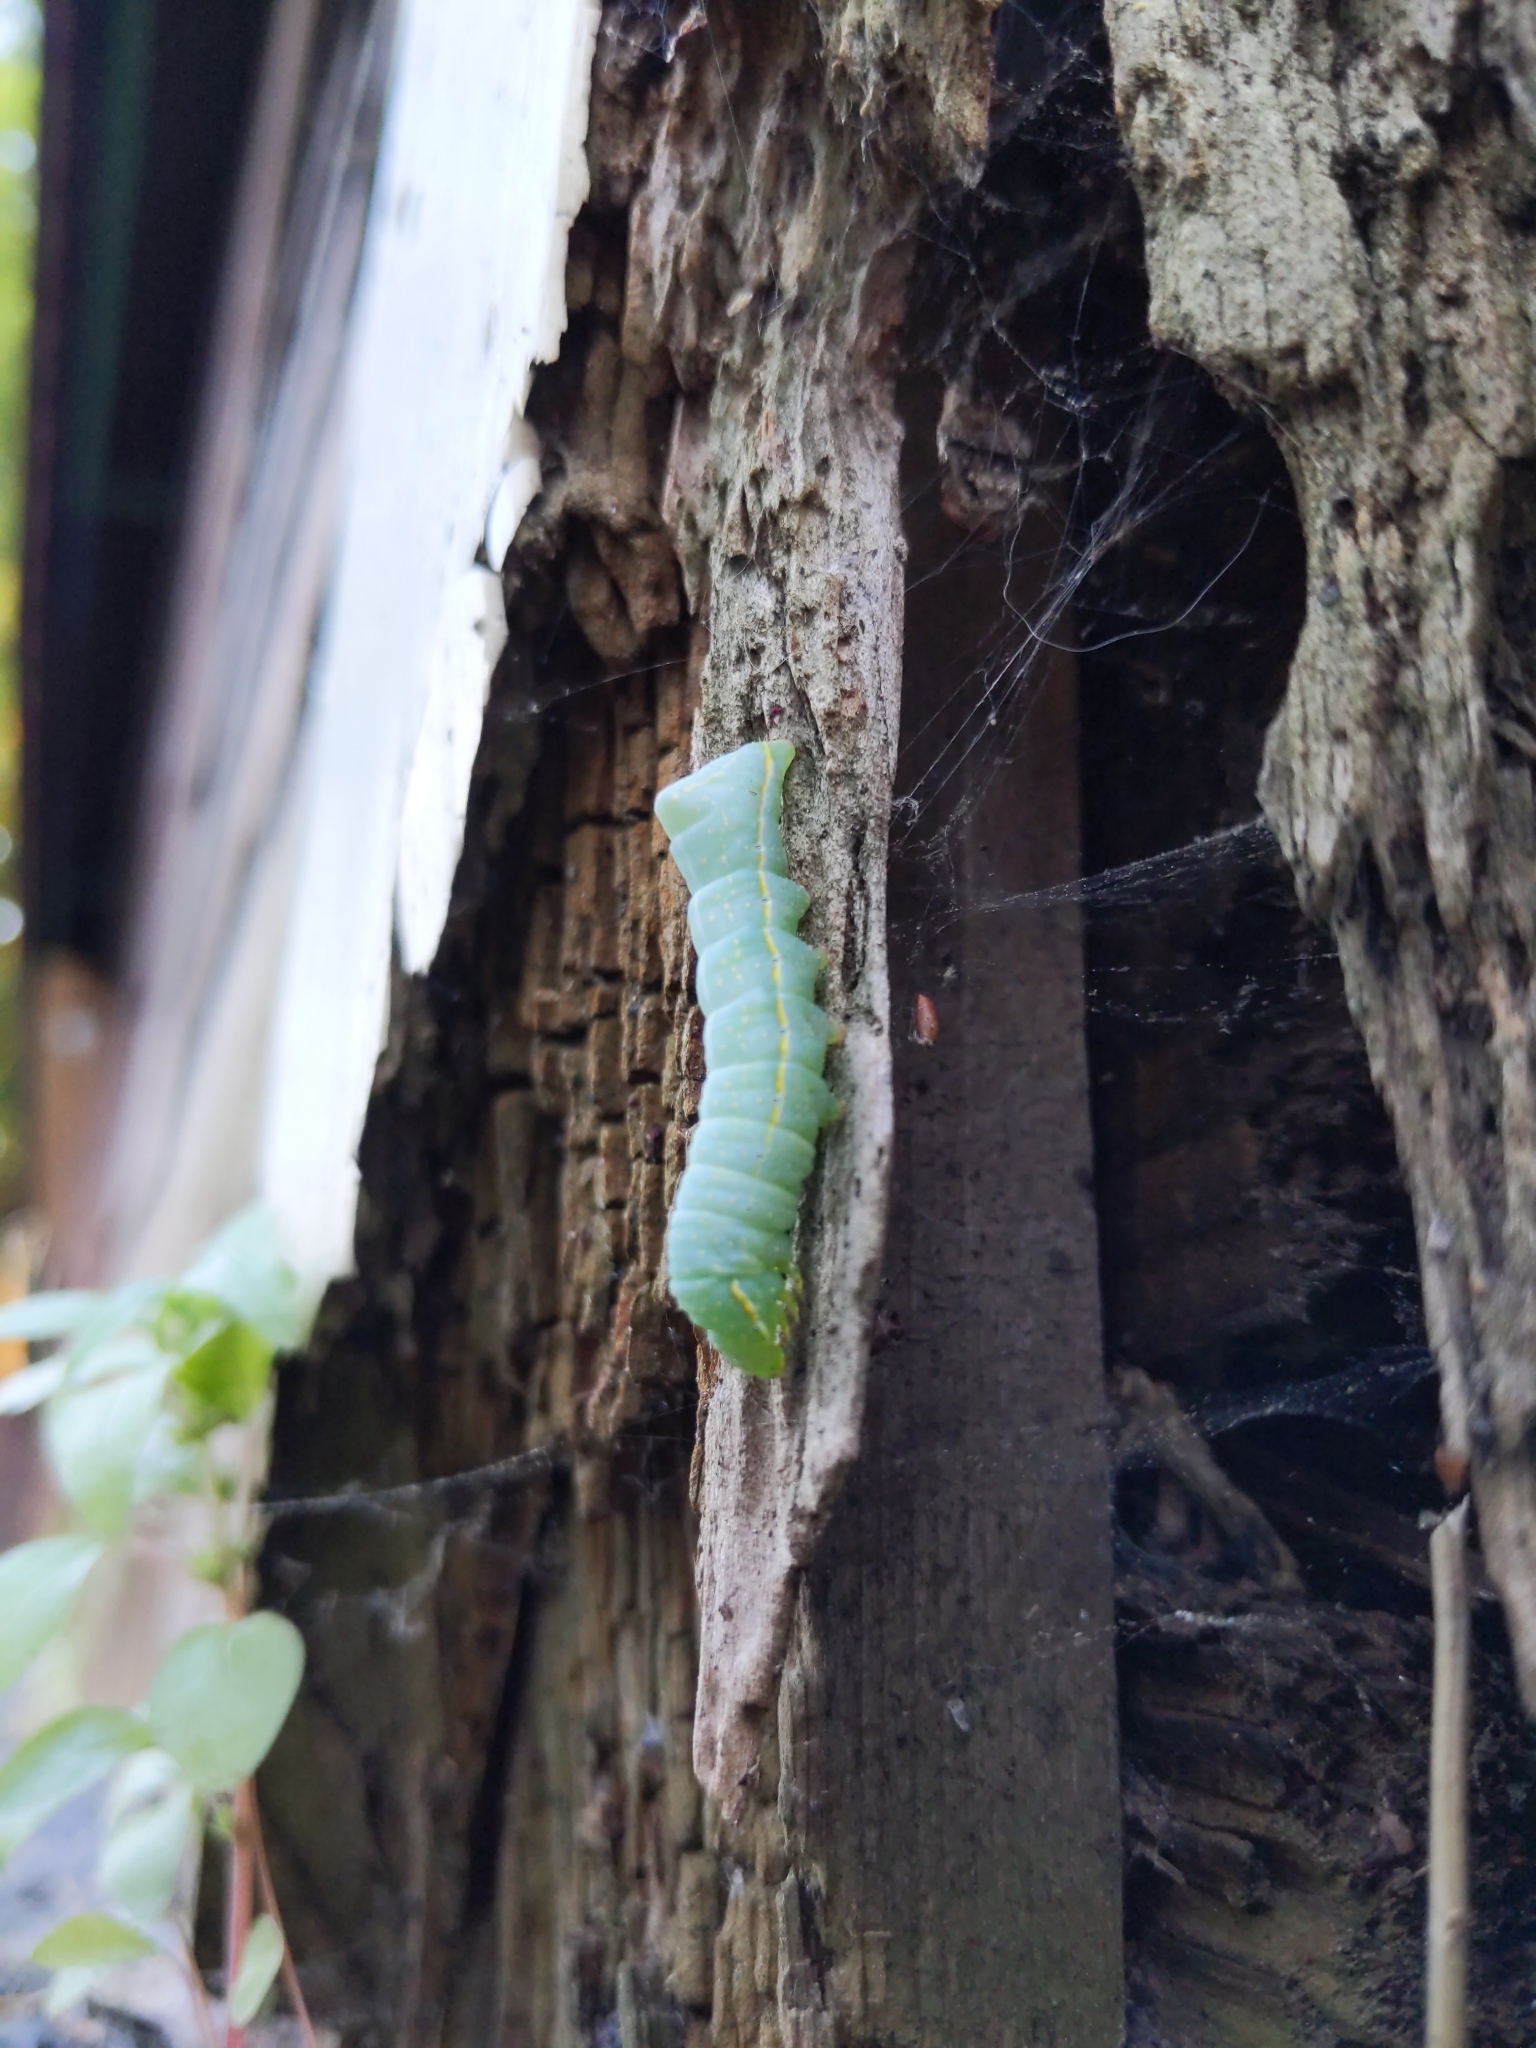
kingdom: Animalia
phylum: Arthropoda
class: Insecta
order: Lepidoptera
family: Noctuidae
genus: Amphipyra
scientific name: Amphipyra pyramidoides
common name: American copper underwing
